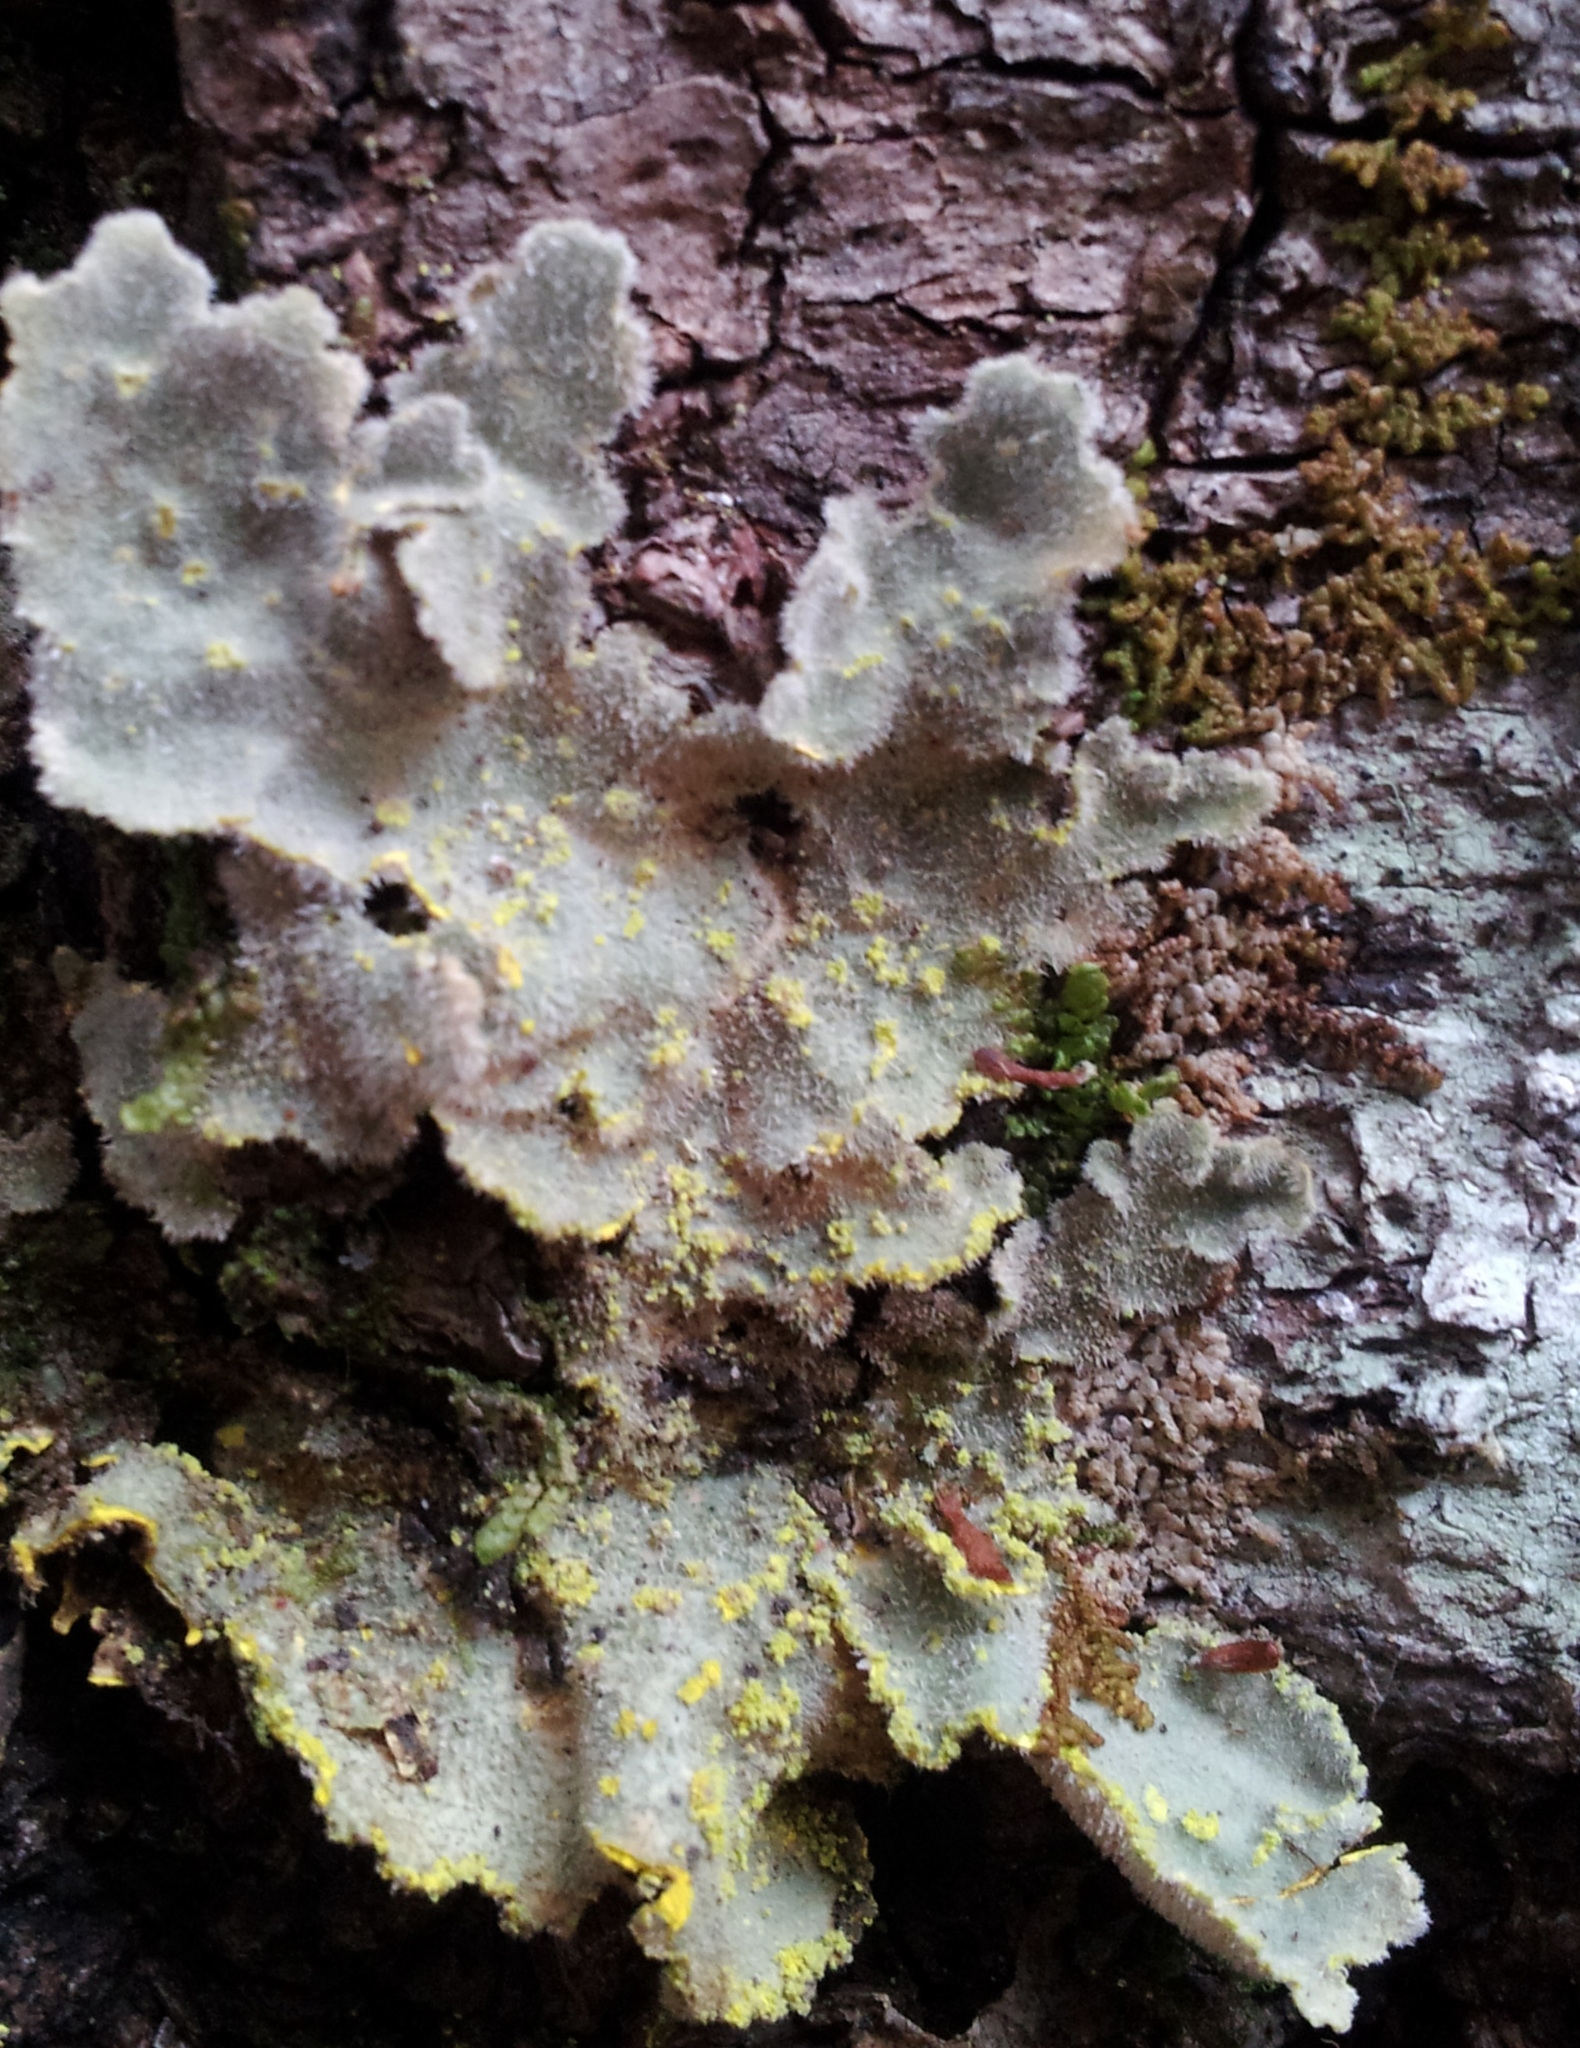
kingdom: Fungi
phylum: Ascomycota
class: Lecanoromycetes
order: Peltigerales
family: Lobariaceae
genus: Pseudocyphellaria
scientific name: Pseudocyphellaria rubella
